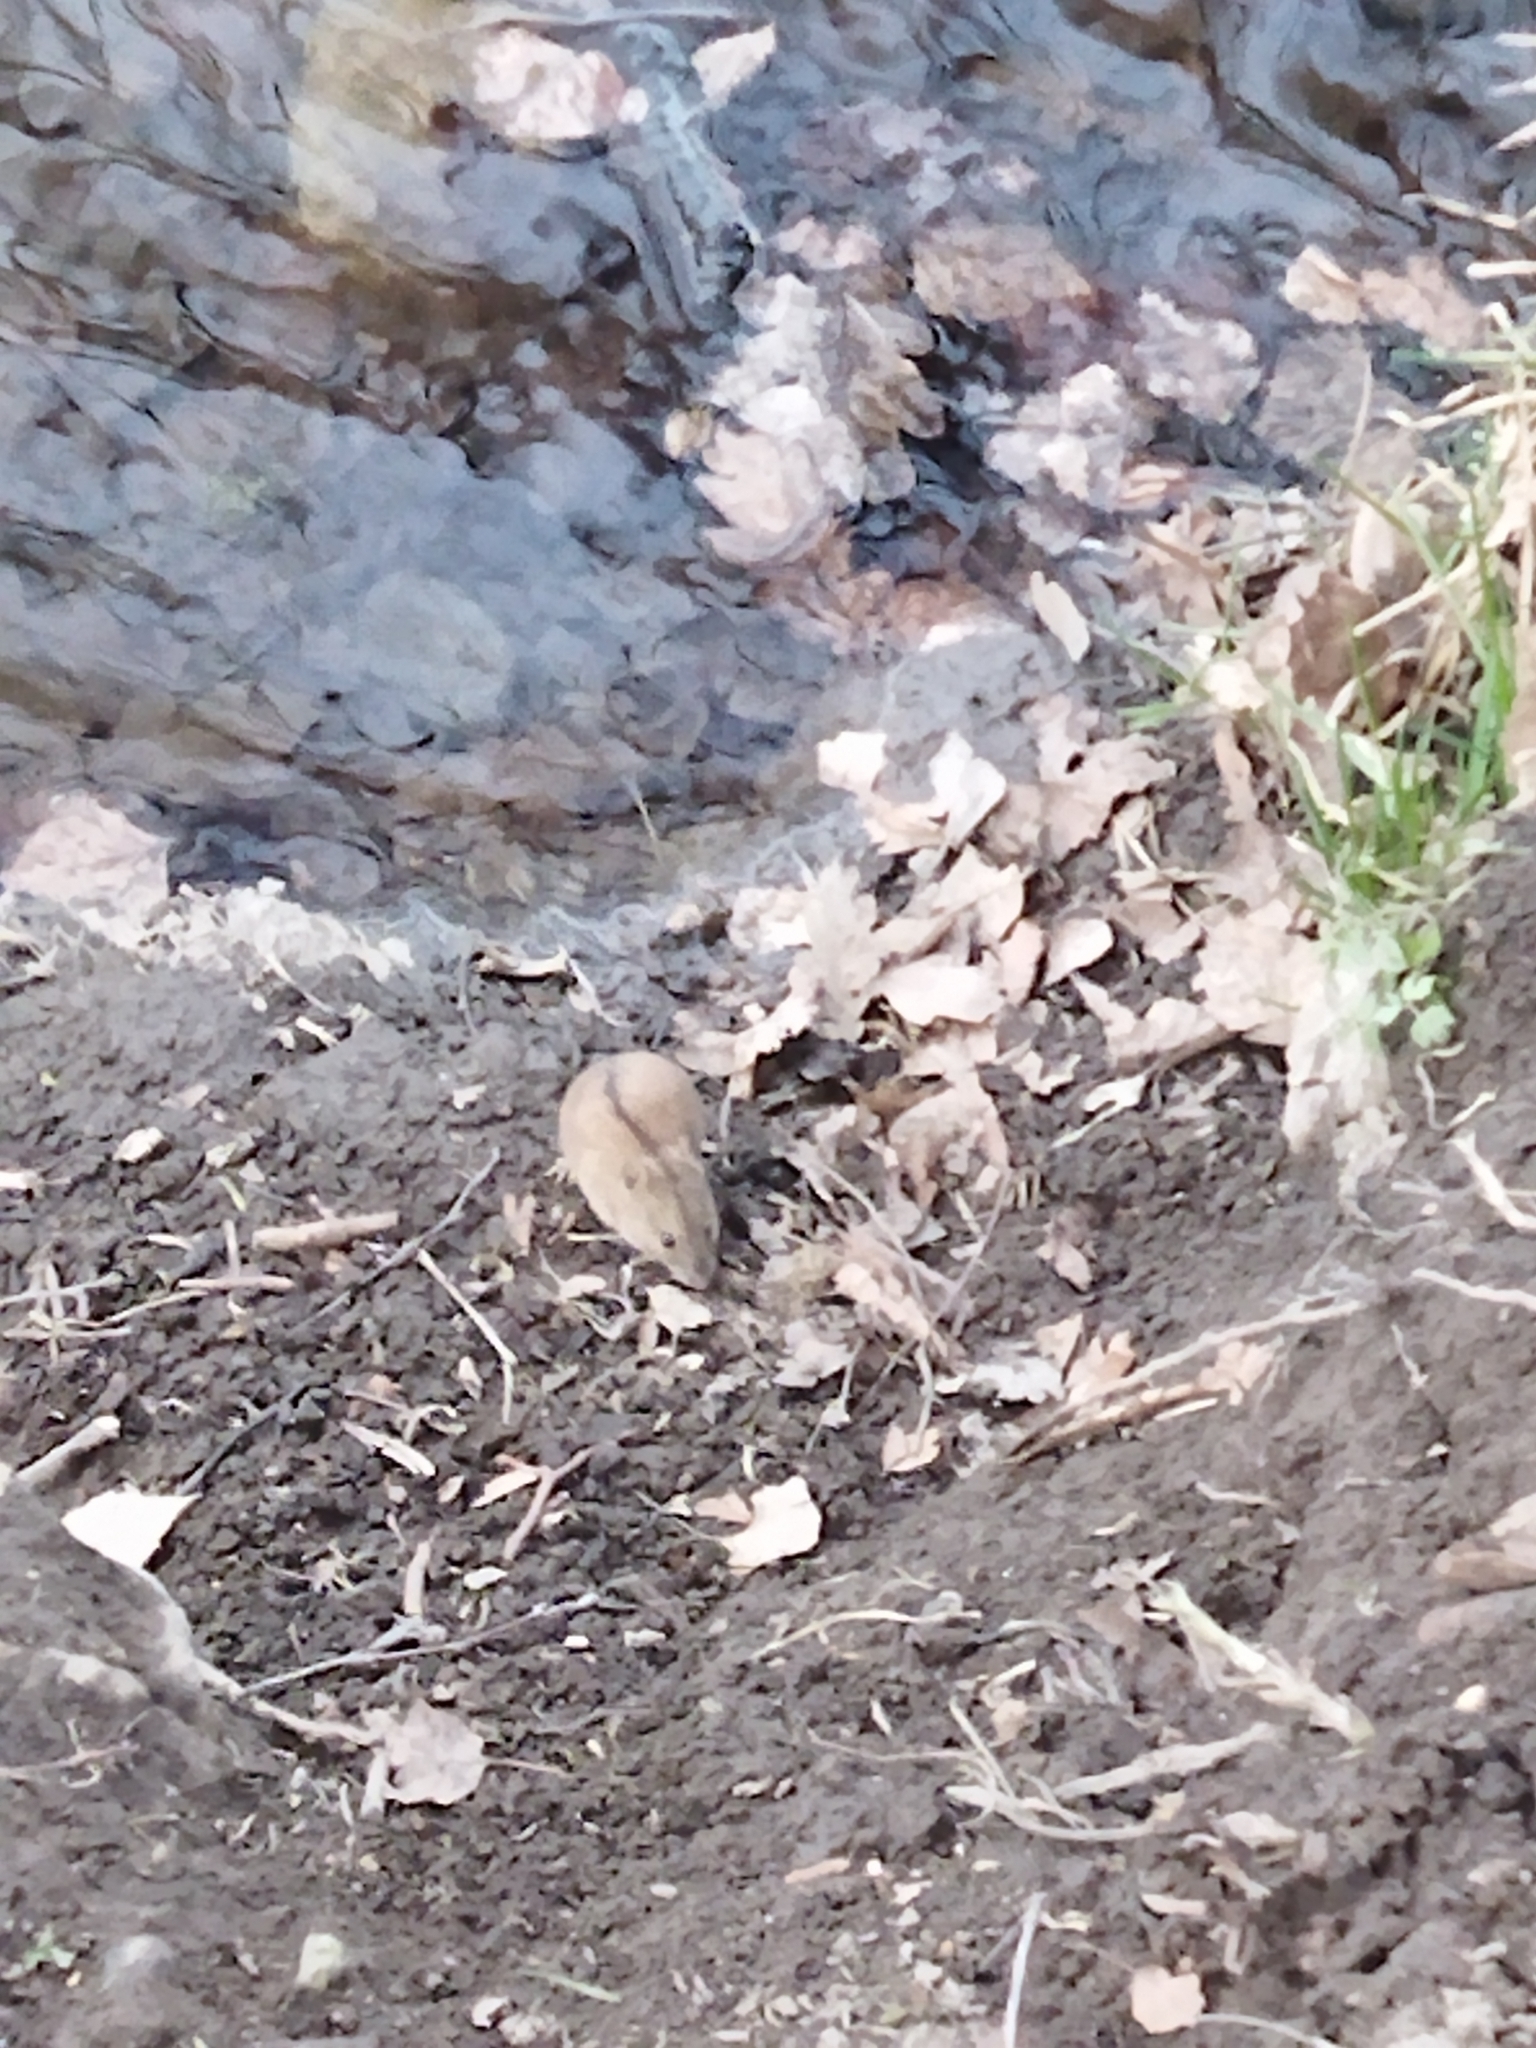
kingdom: Animalia
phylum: Chordata
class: Mammalia
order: Rodentia
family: Muridae
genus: Apodemus
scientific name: Apodemus agrarius
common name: Striped field mouse
